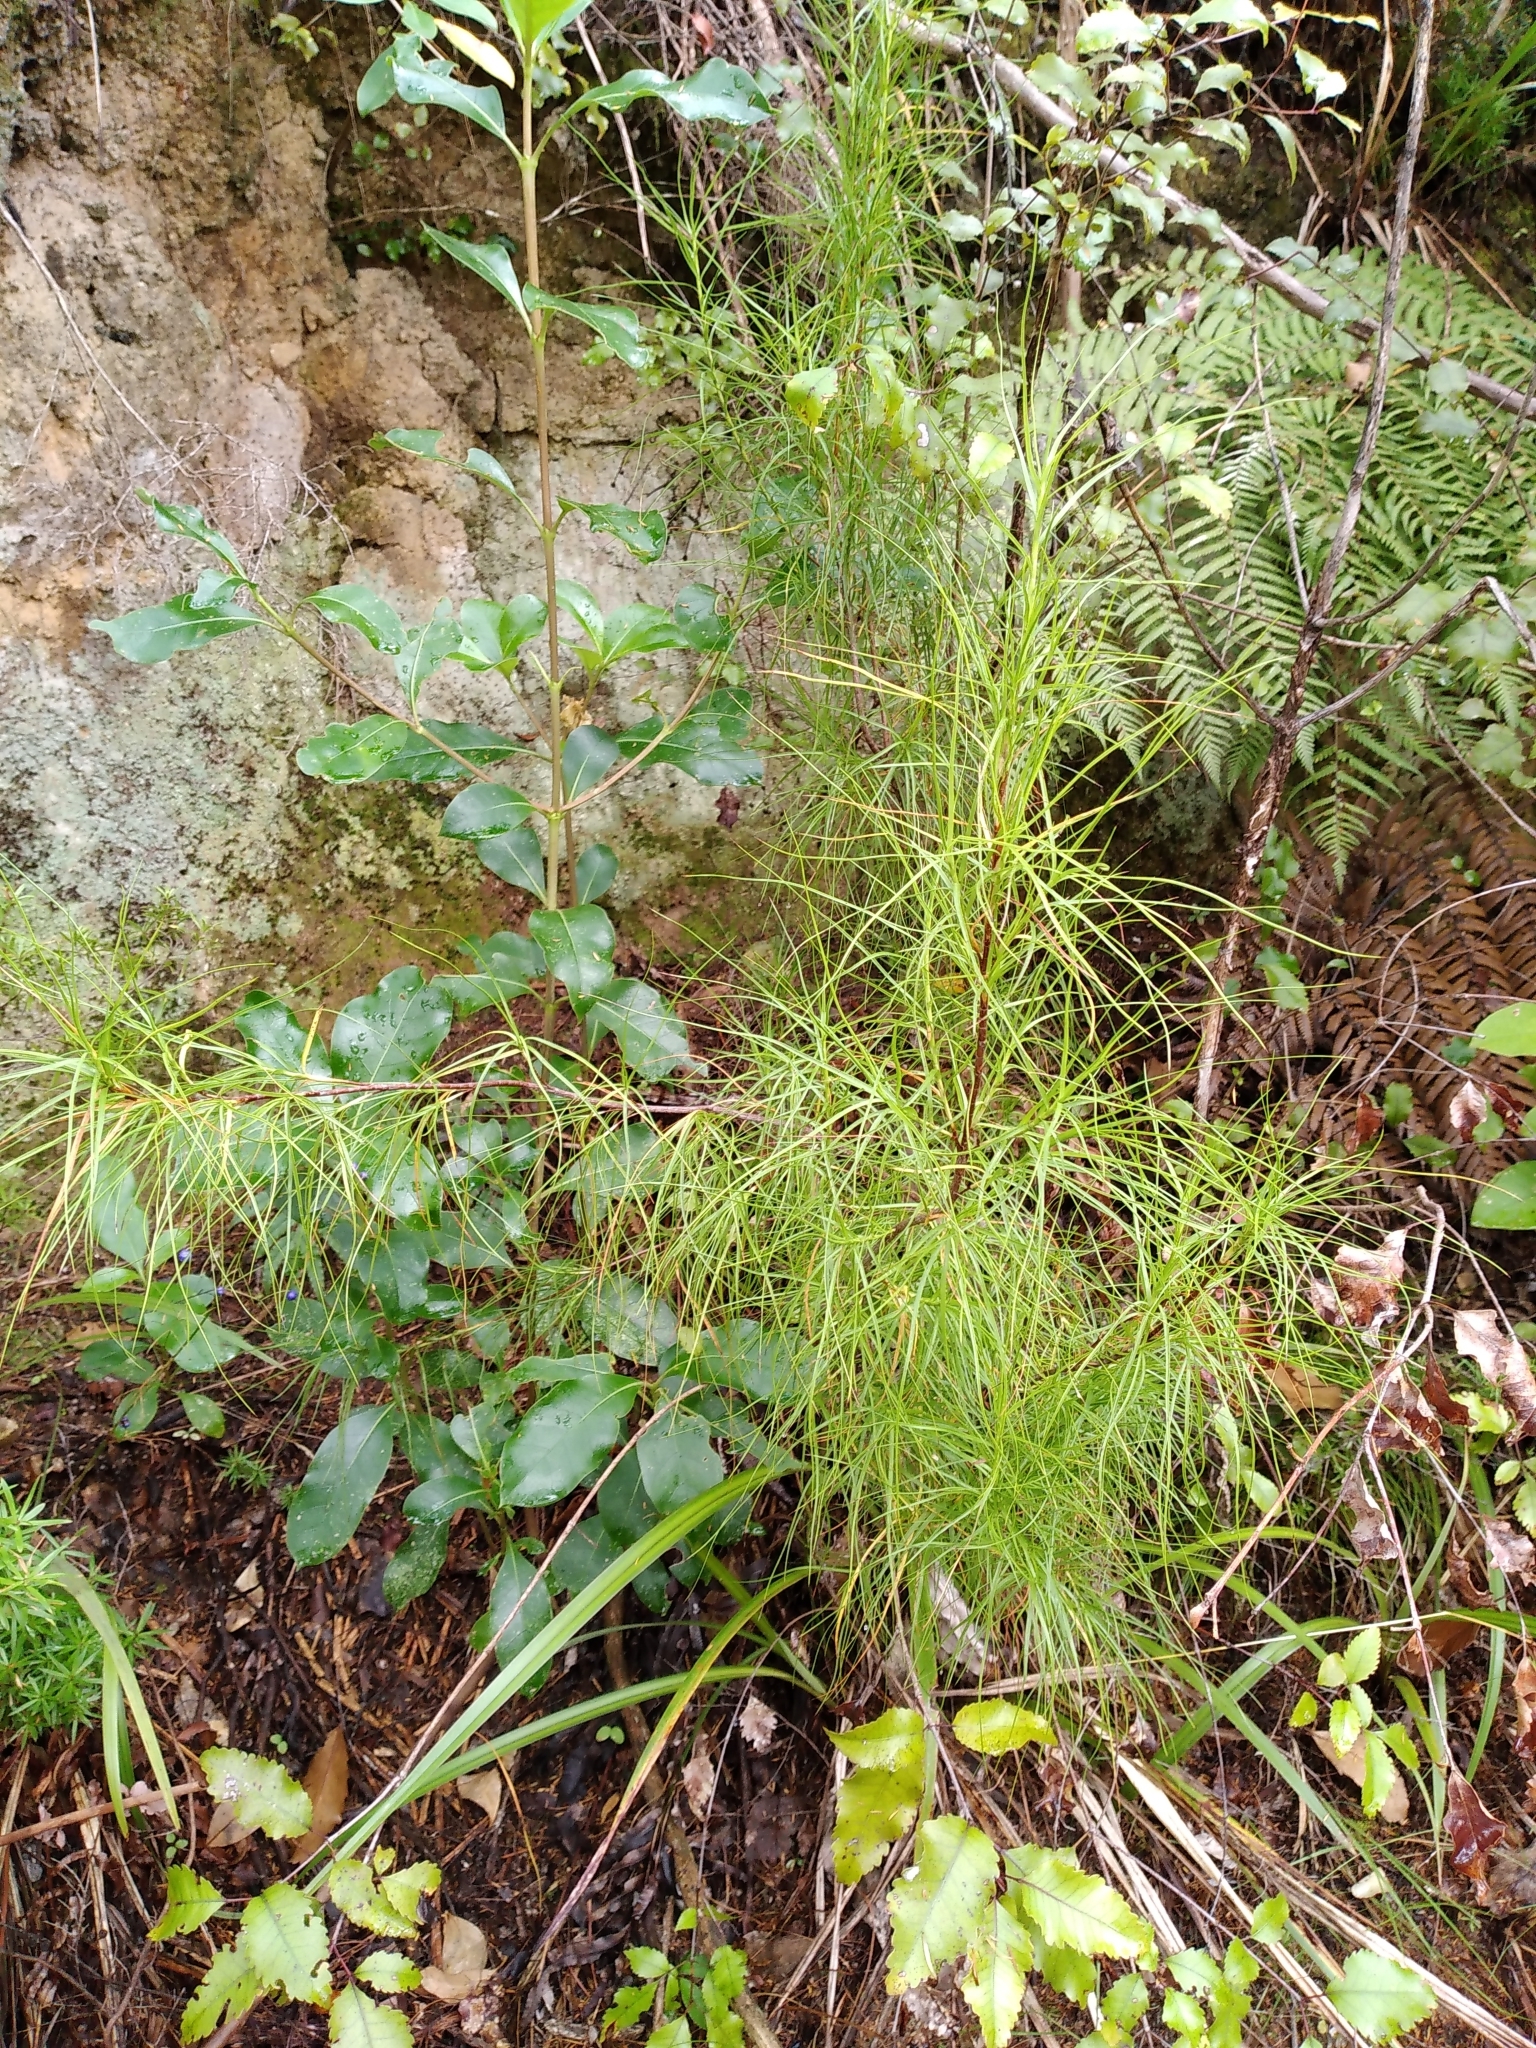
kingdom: Plantae
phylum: Tracheophyta
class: Magnoliopsida
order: Ericales
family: Ericaceae
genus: Dracophyllum
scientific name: Dracophyllum urvilleanum
